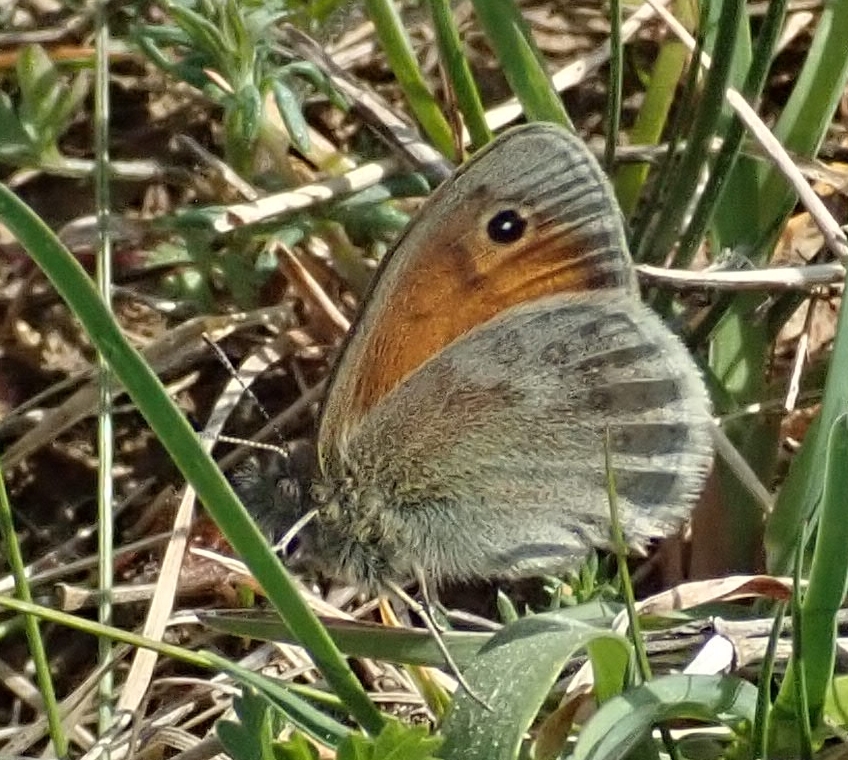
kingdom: Animalia
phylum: Arthropoda
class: Insecta
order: Lepidoptera
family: Nymphalidae
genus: Coenonympha
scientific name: Coenonympha pamphilus
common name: Small heath
